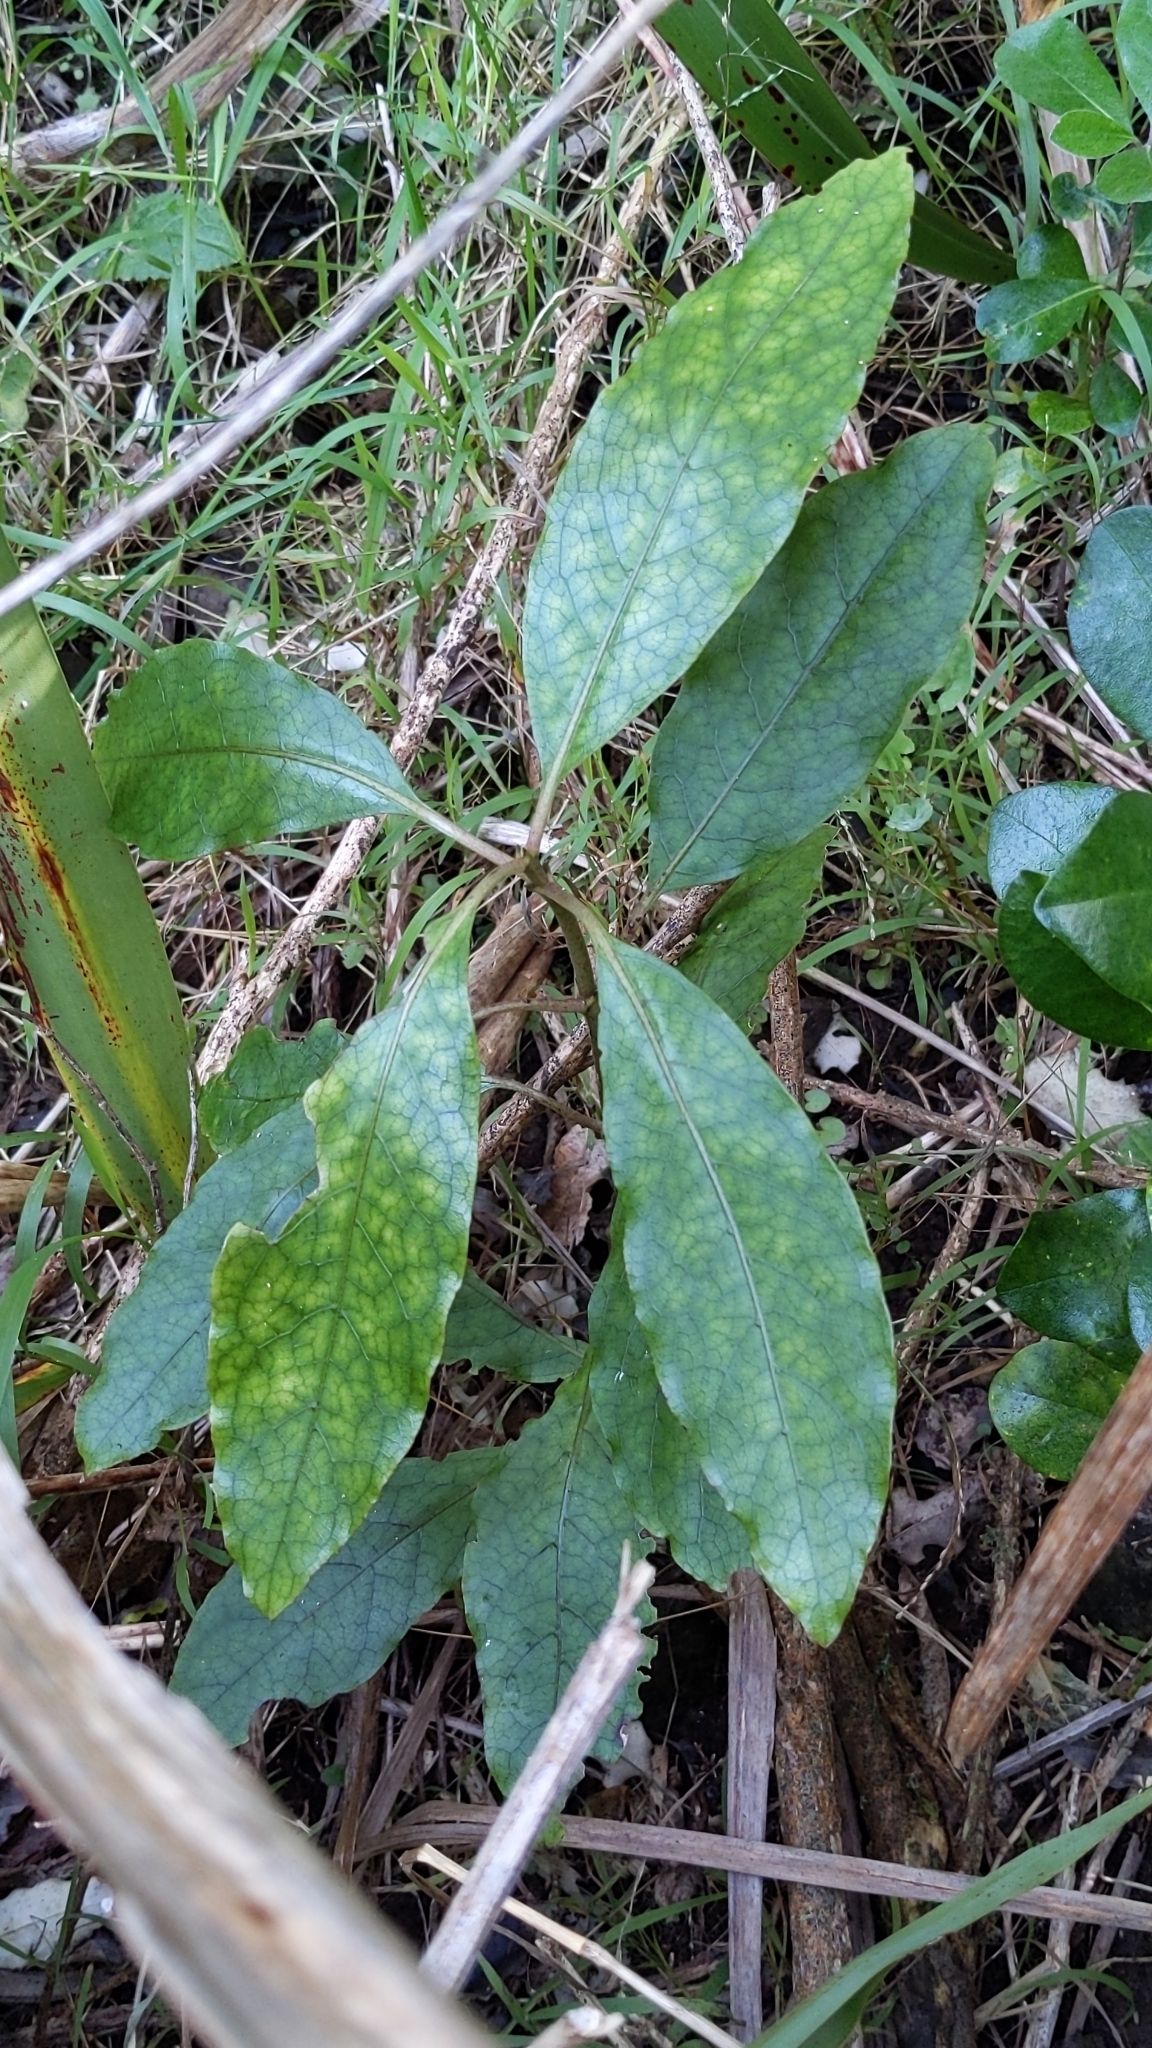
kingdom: Plantae
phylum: Tracheophyta
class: Magnoliopsida
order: Gentianales
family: Rubiaceae
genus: Coprosma
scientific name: Coprosma autumnalis
